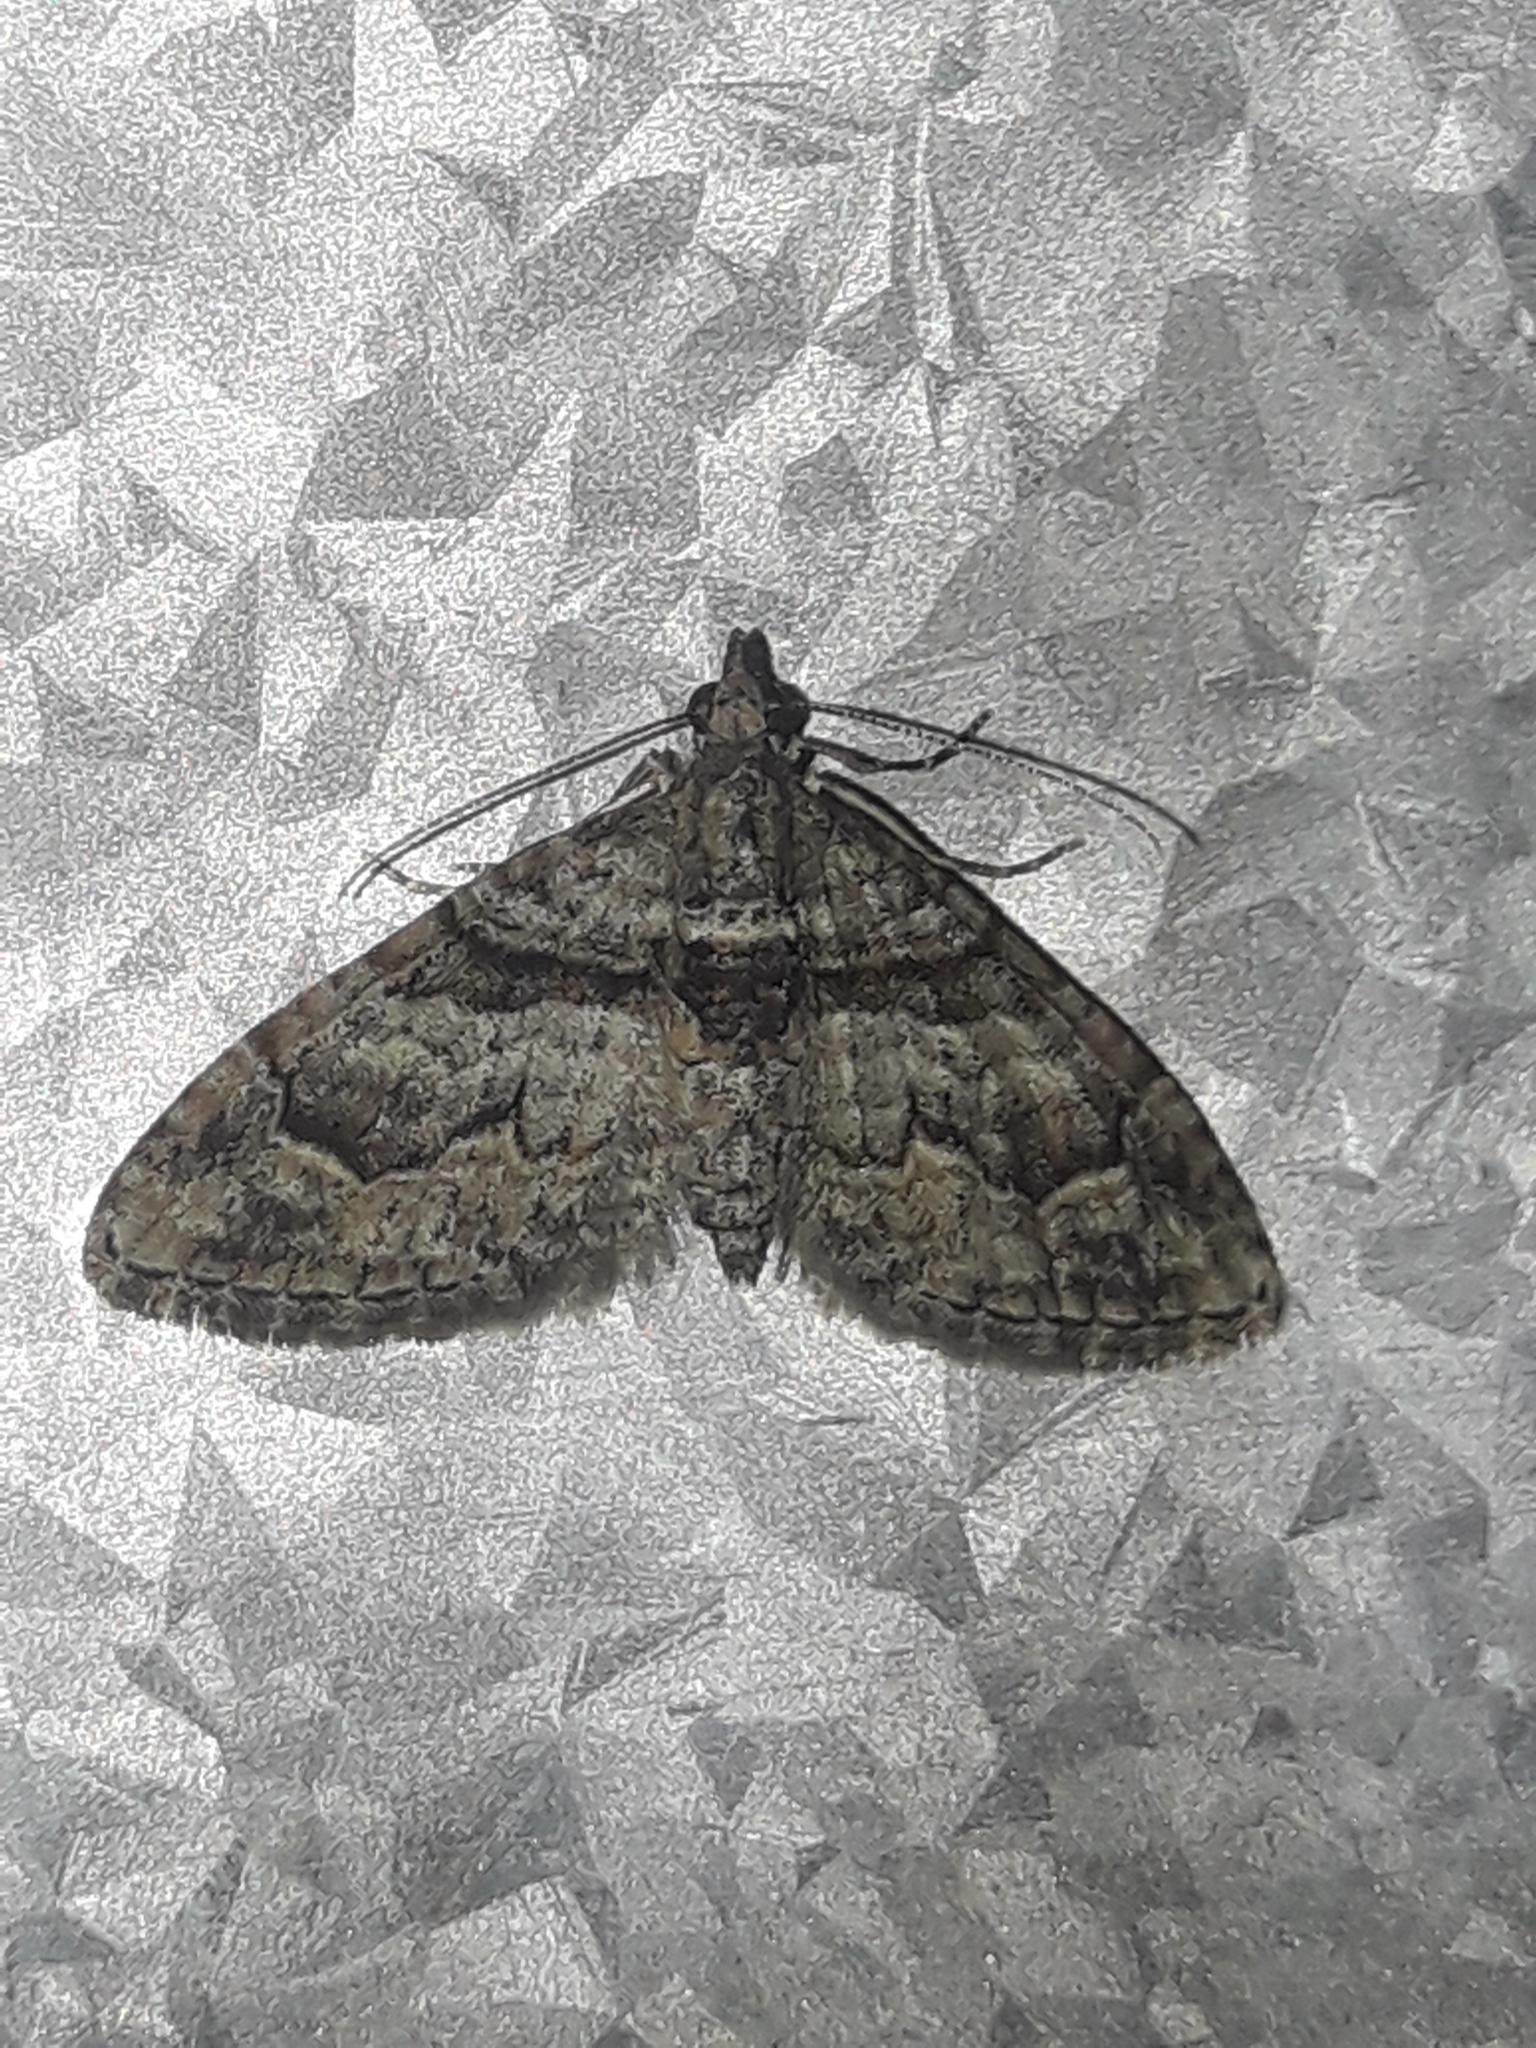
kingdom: Animalia
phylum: Arthropoda
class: Insecta
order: Lepidoptera
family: Geometridae
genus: Phrissogonus
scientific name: Phrissogonus laticostata
